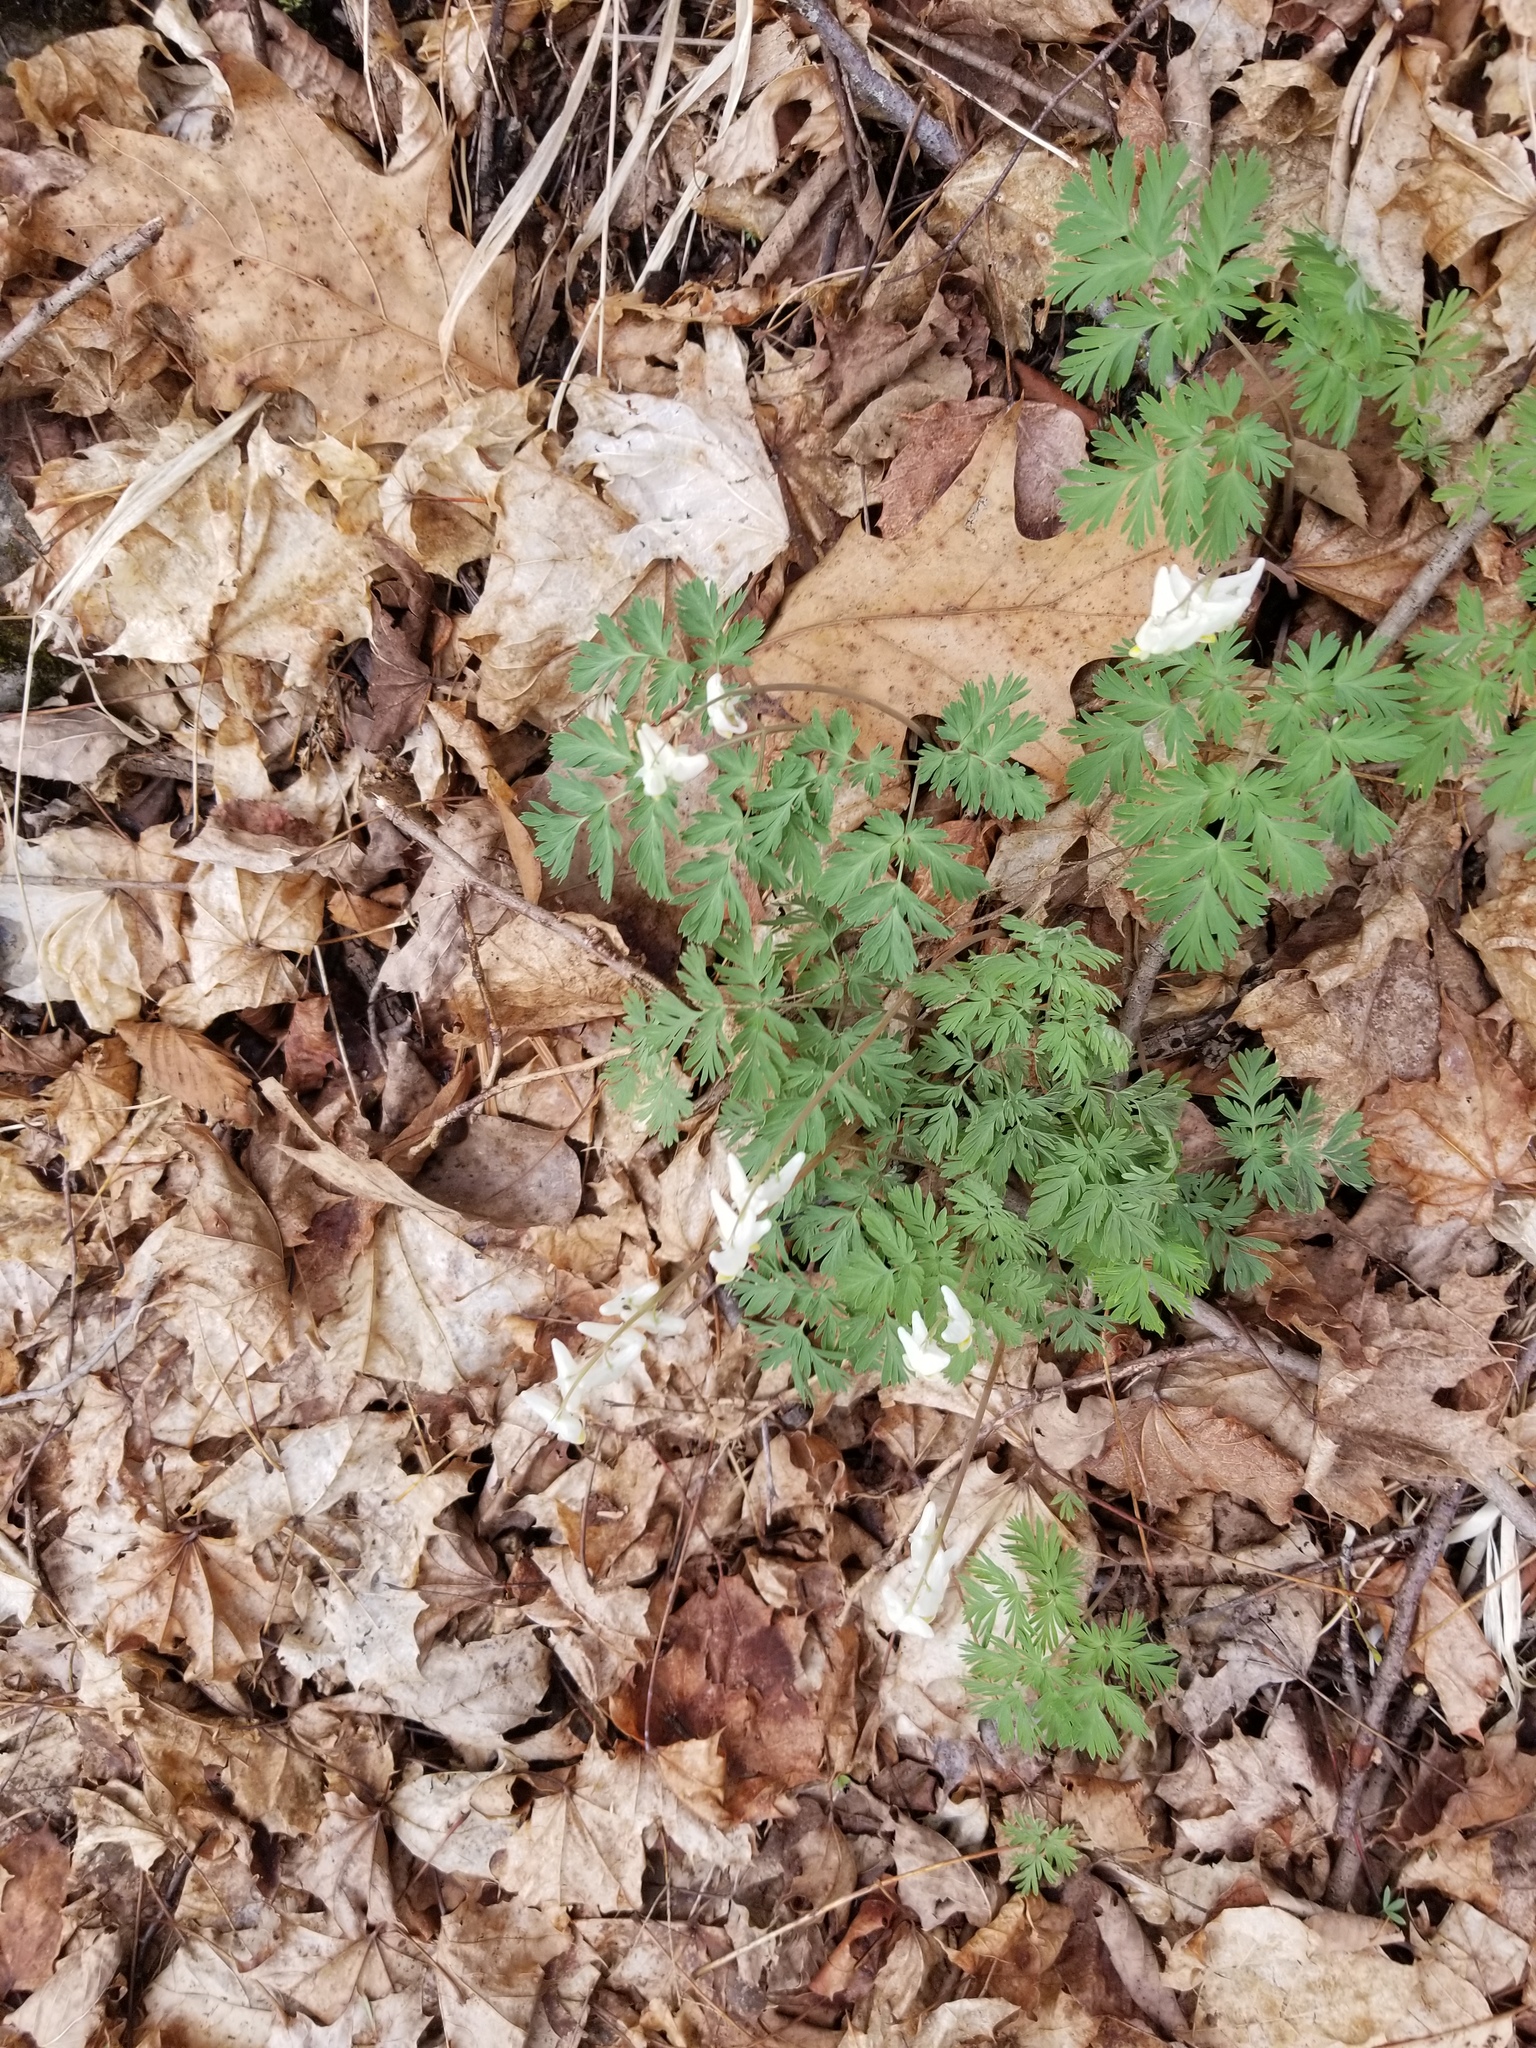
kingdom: Plantae
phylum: Tracheophyta
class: Magnoliopsida
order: Ranunculales
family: Papaveraceae
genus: Dicentra
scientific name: Dicentra cucullaria
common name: Dutchman's breeches
